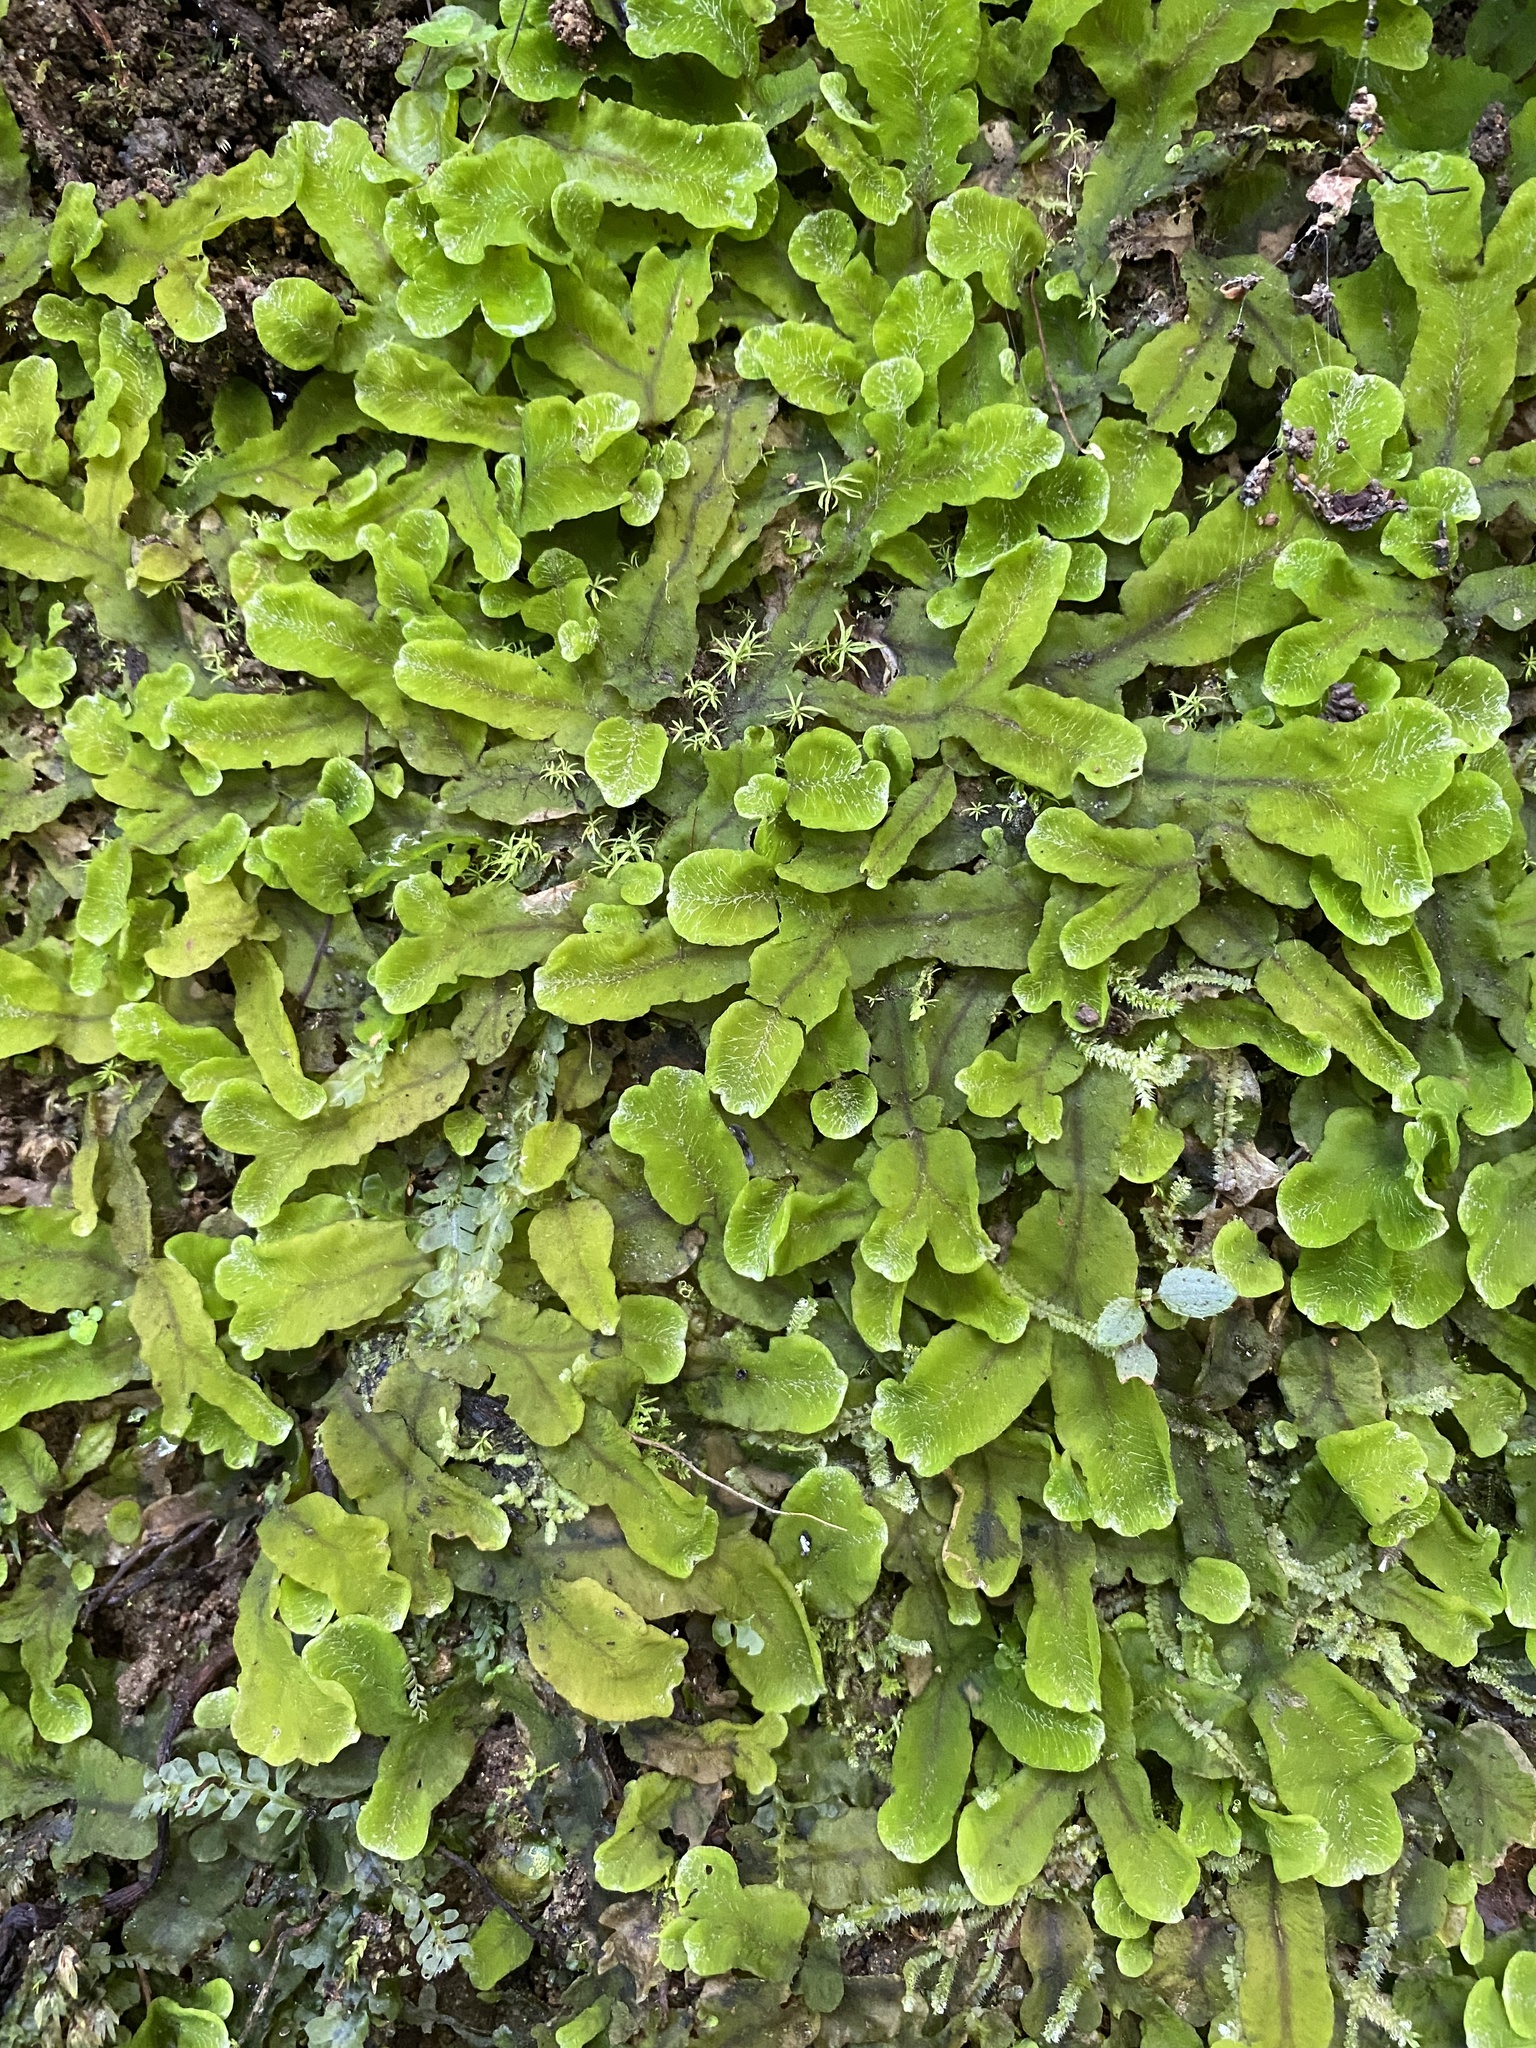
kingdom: Plantae
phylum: Marchantiophyta
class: Marchantiopsida
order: Marchantiales
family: Dumortieraceae
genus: Dumortiera
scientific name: Dumortiera hirsuta
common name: Dumortier's liverwort
